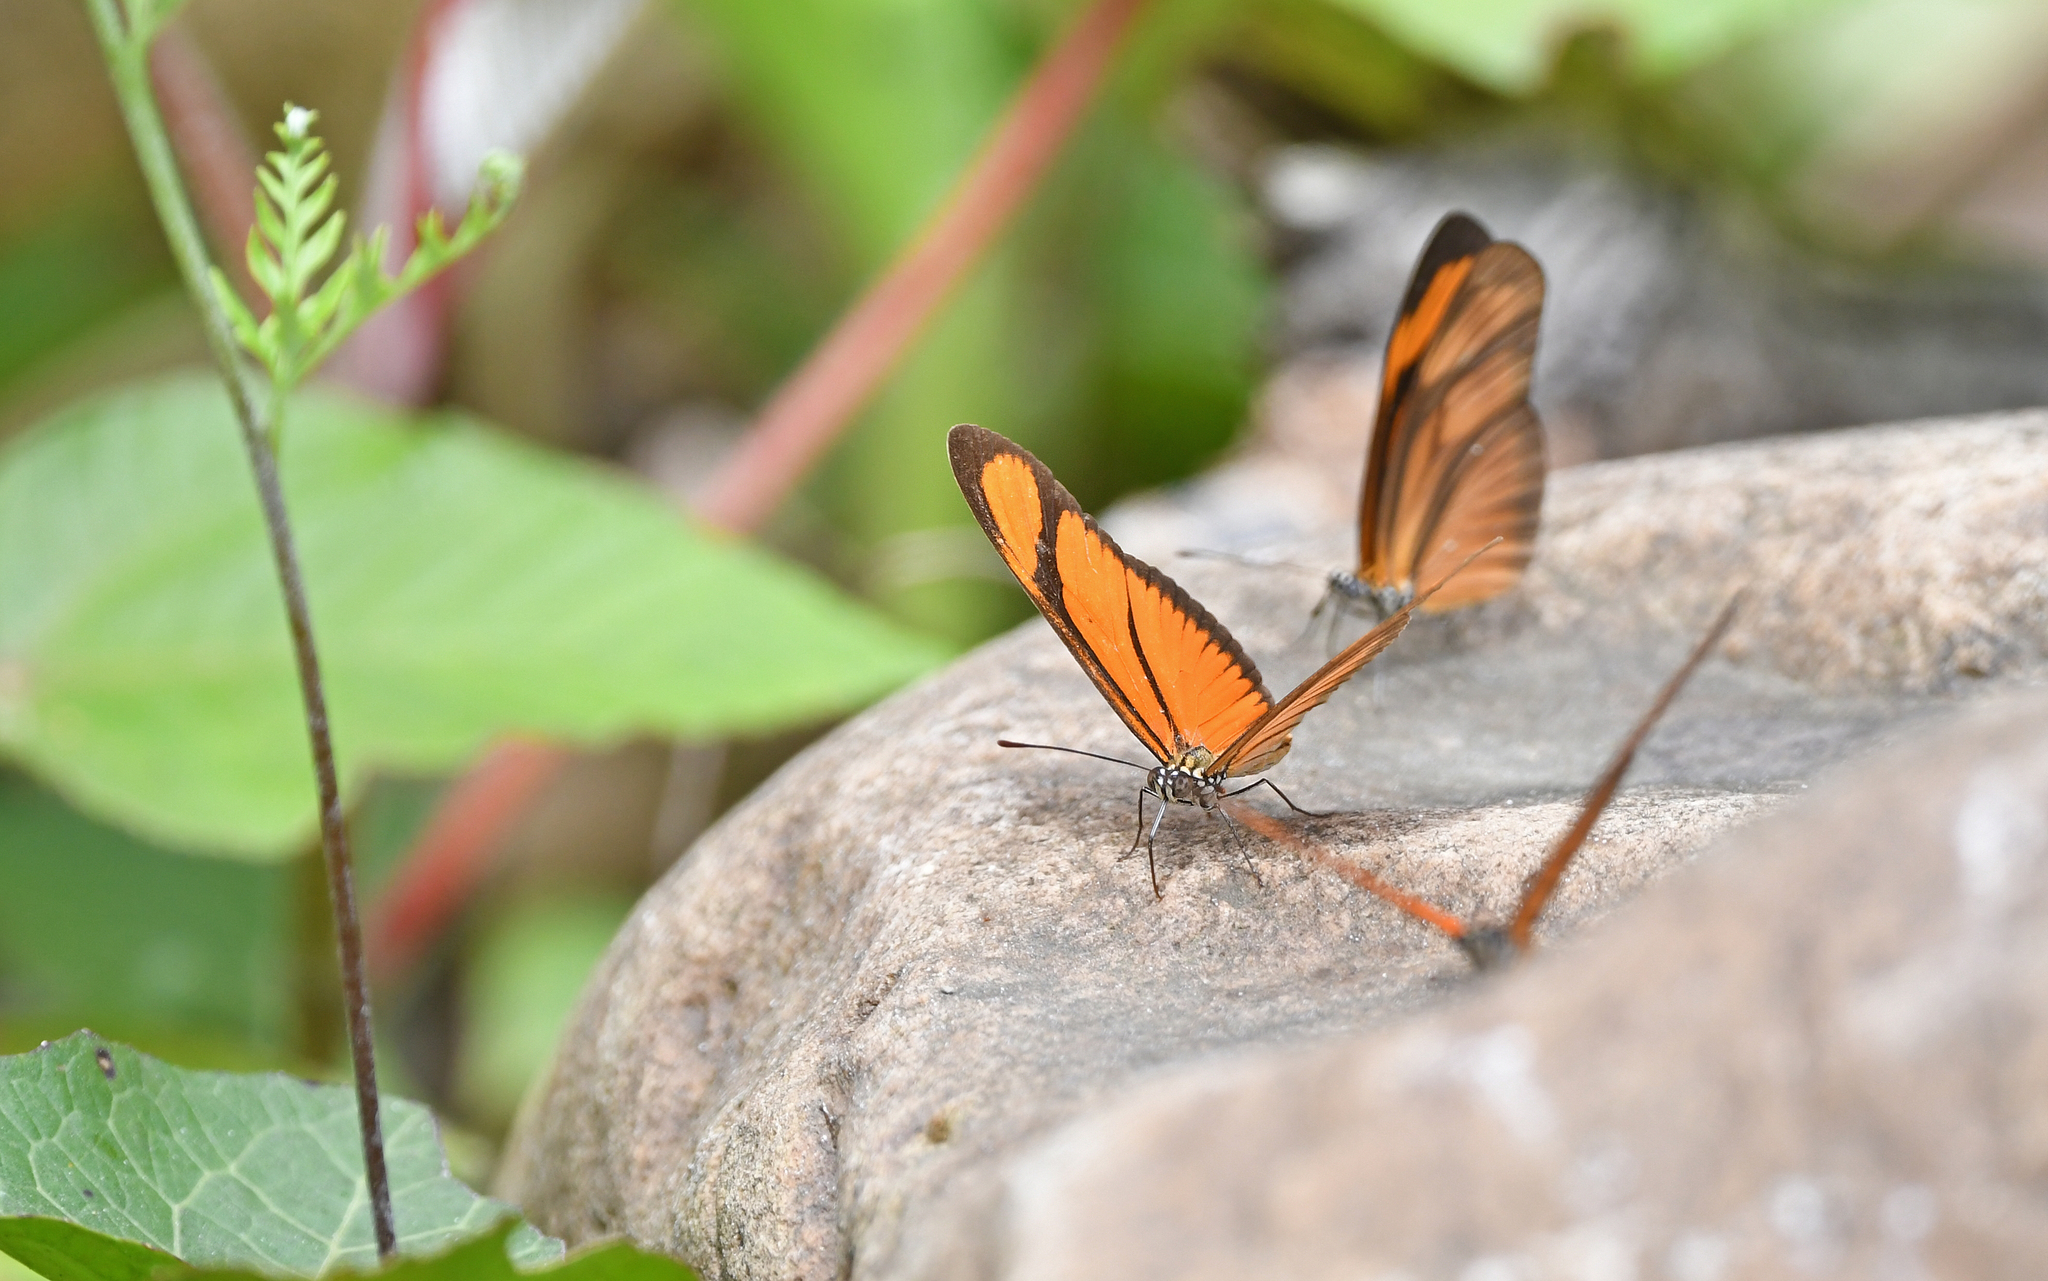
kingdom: Animalia
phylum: Arthropoda
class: Insecta
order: Lepidoptera
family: Nymphalidae
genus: Heliconius
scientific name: Heliconius aliphera
